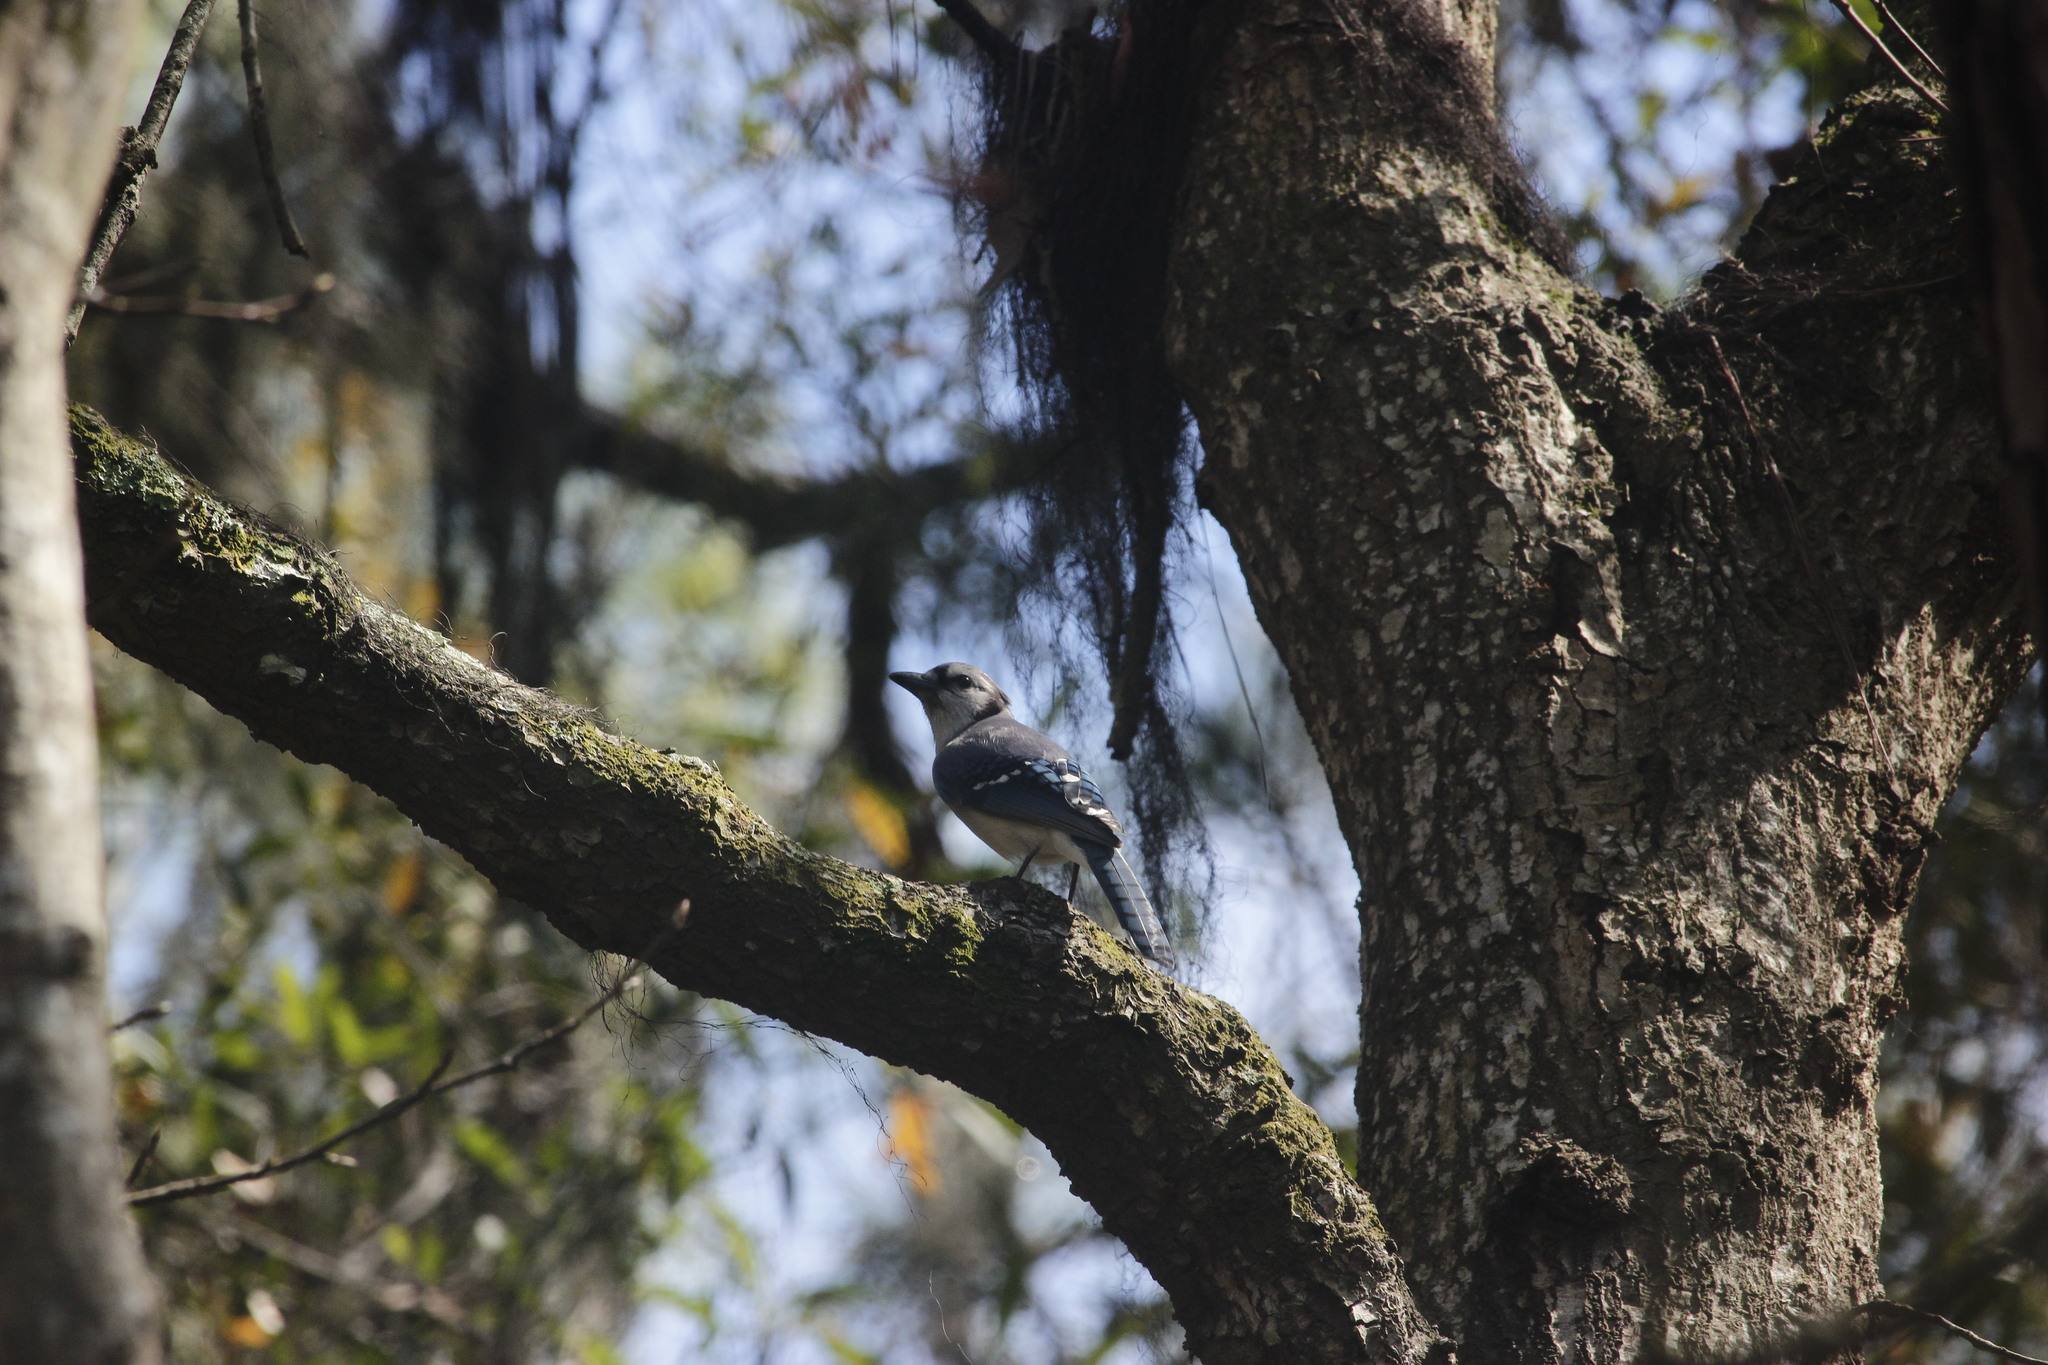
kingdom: Animalia
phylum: Chordata
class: Aves
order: Passeriformes
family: Corvidae
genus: Cyanocitta
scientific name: Cyanocitta cristata
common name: Blue jay
